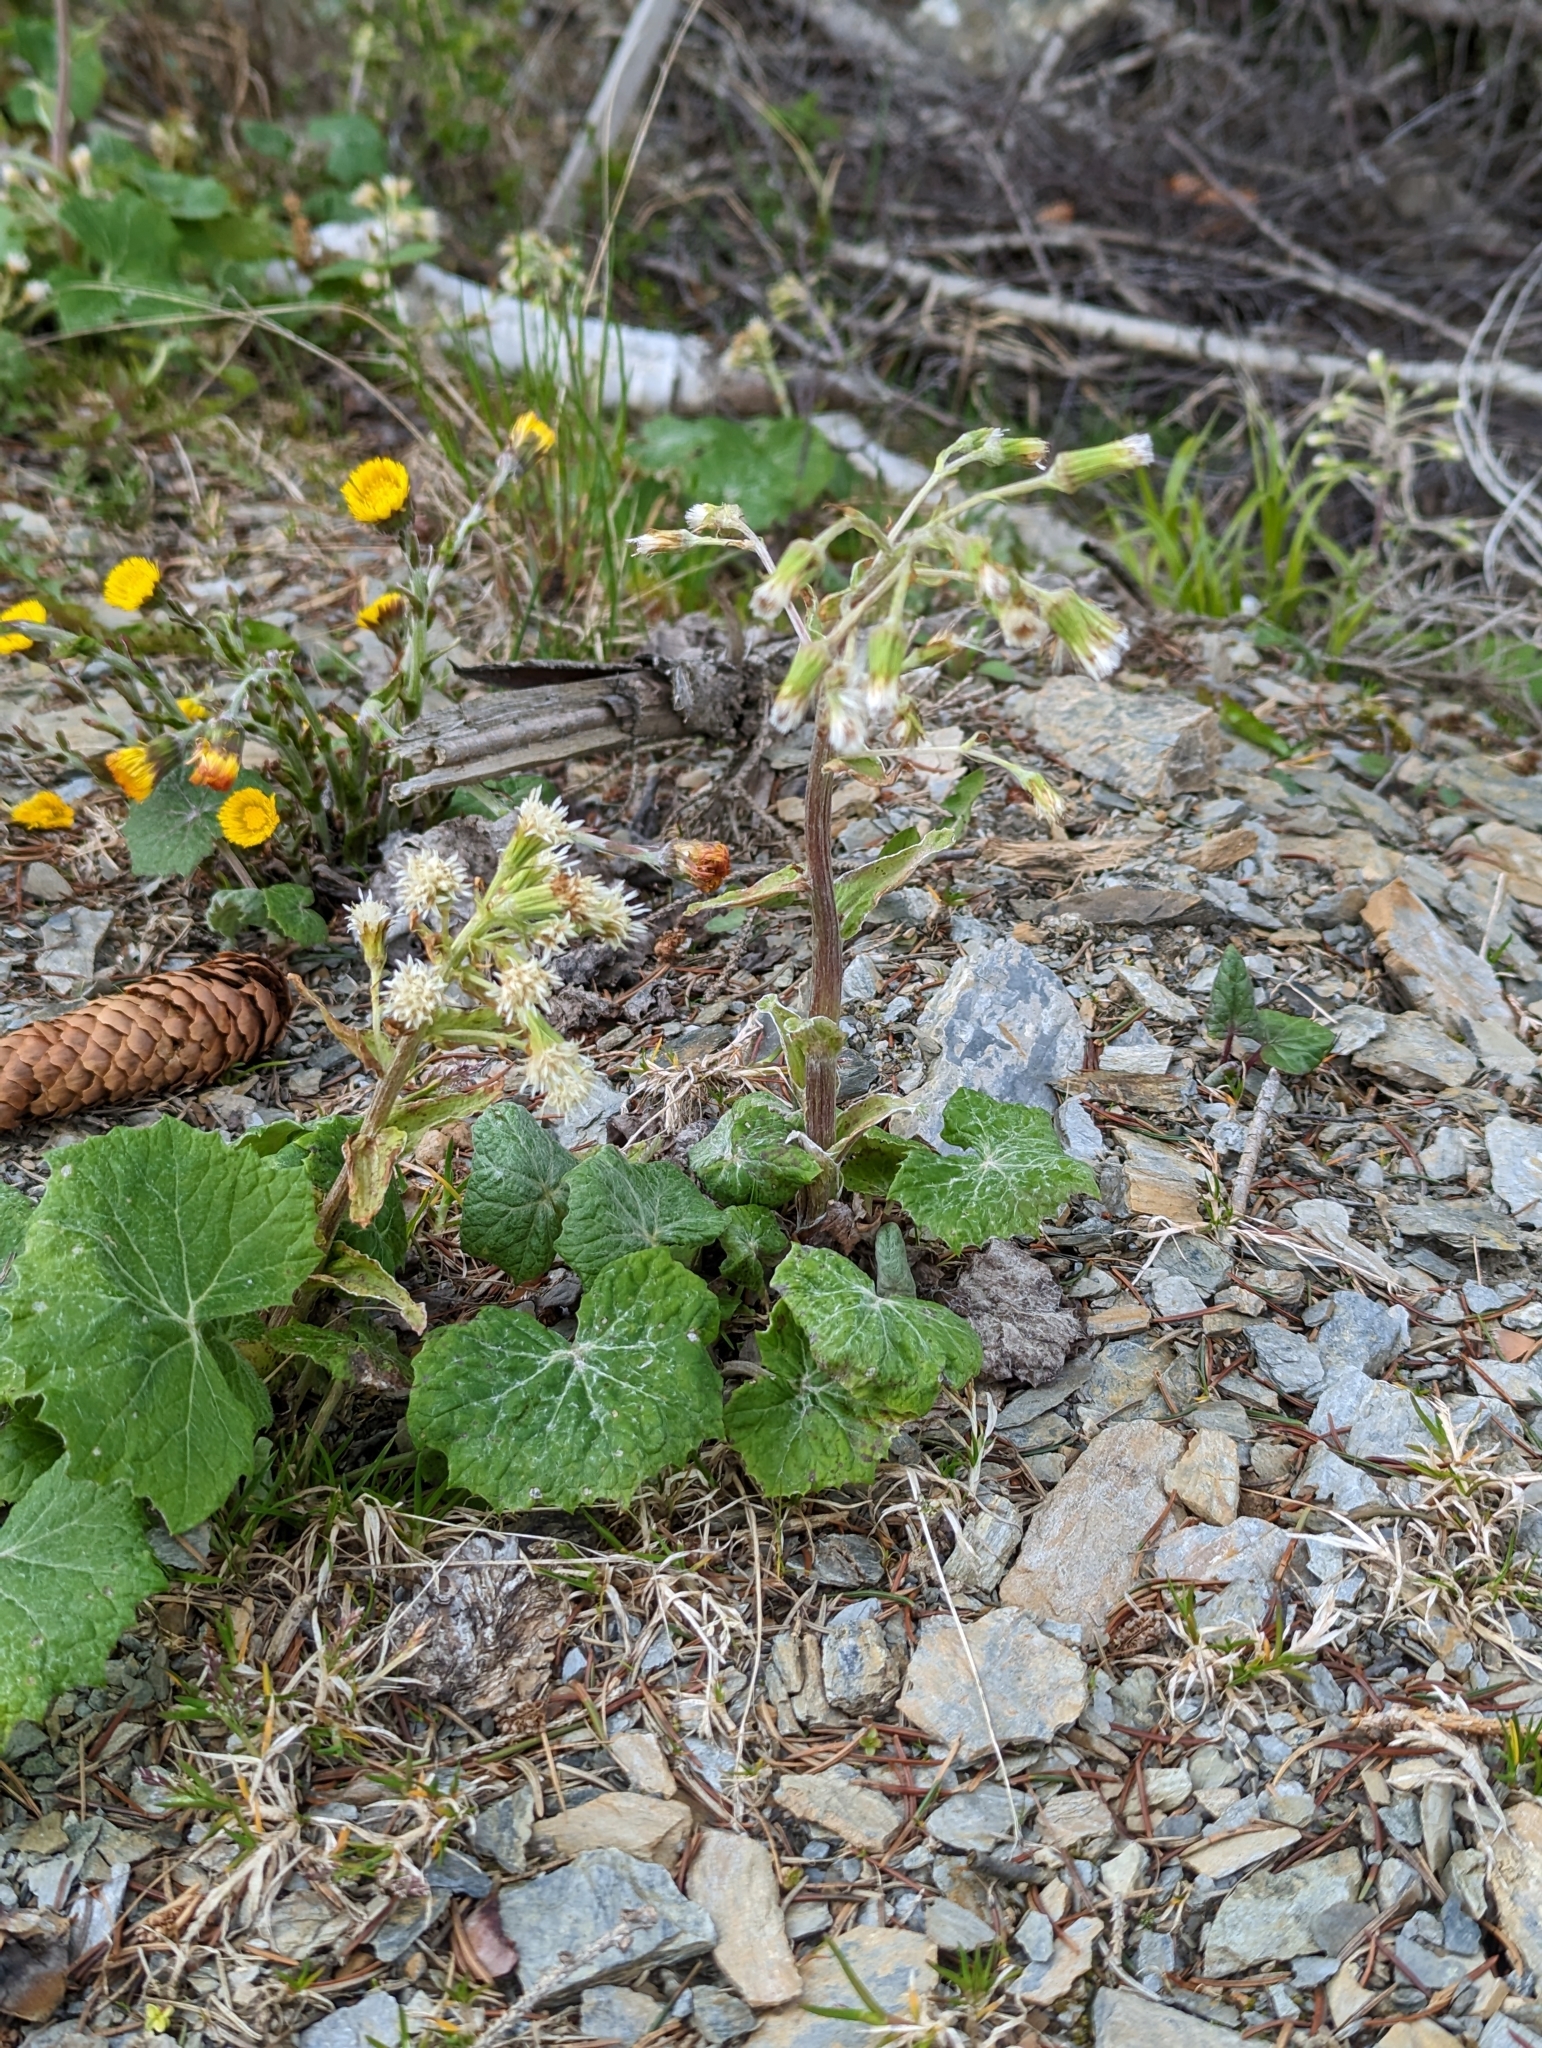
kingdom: Plantae
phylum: Tracheophyta
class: Magnoliopsida
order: Asterales
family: Asteraceae
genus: Petasites
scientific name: Petasites albus
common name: White butterbur
